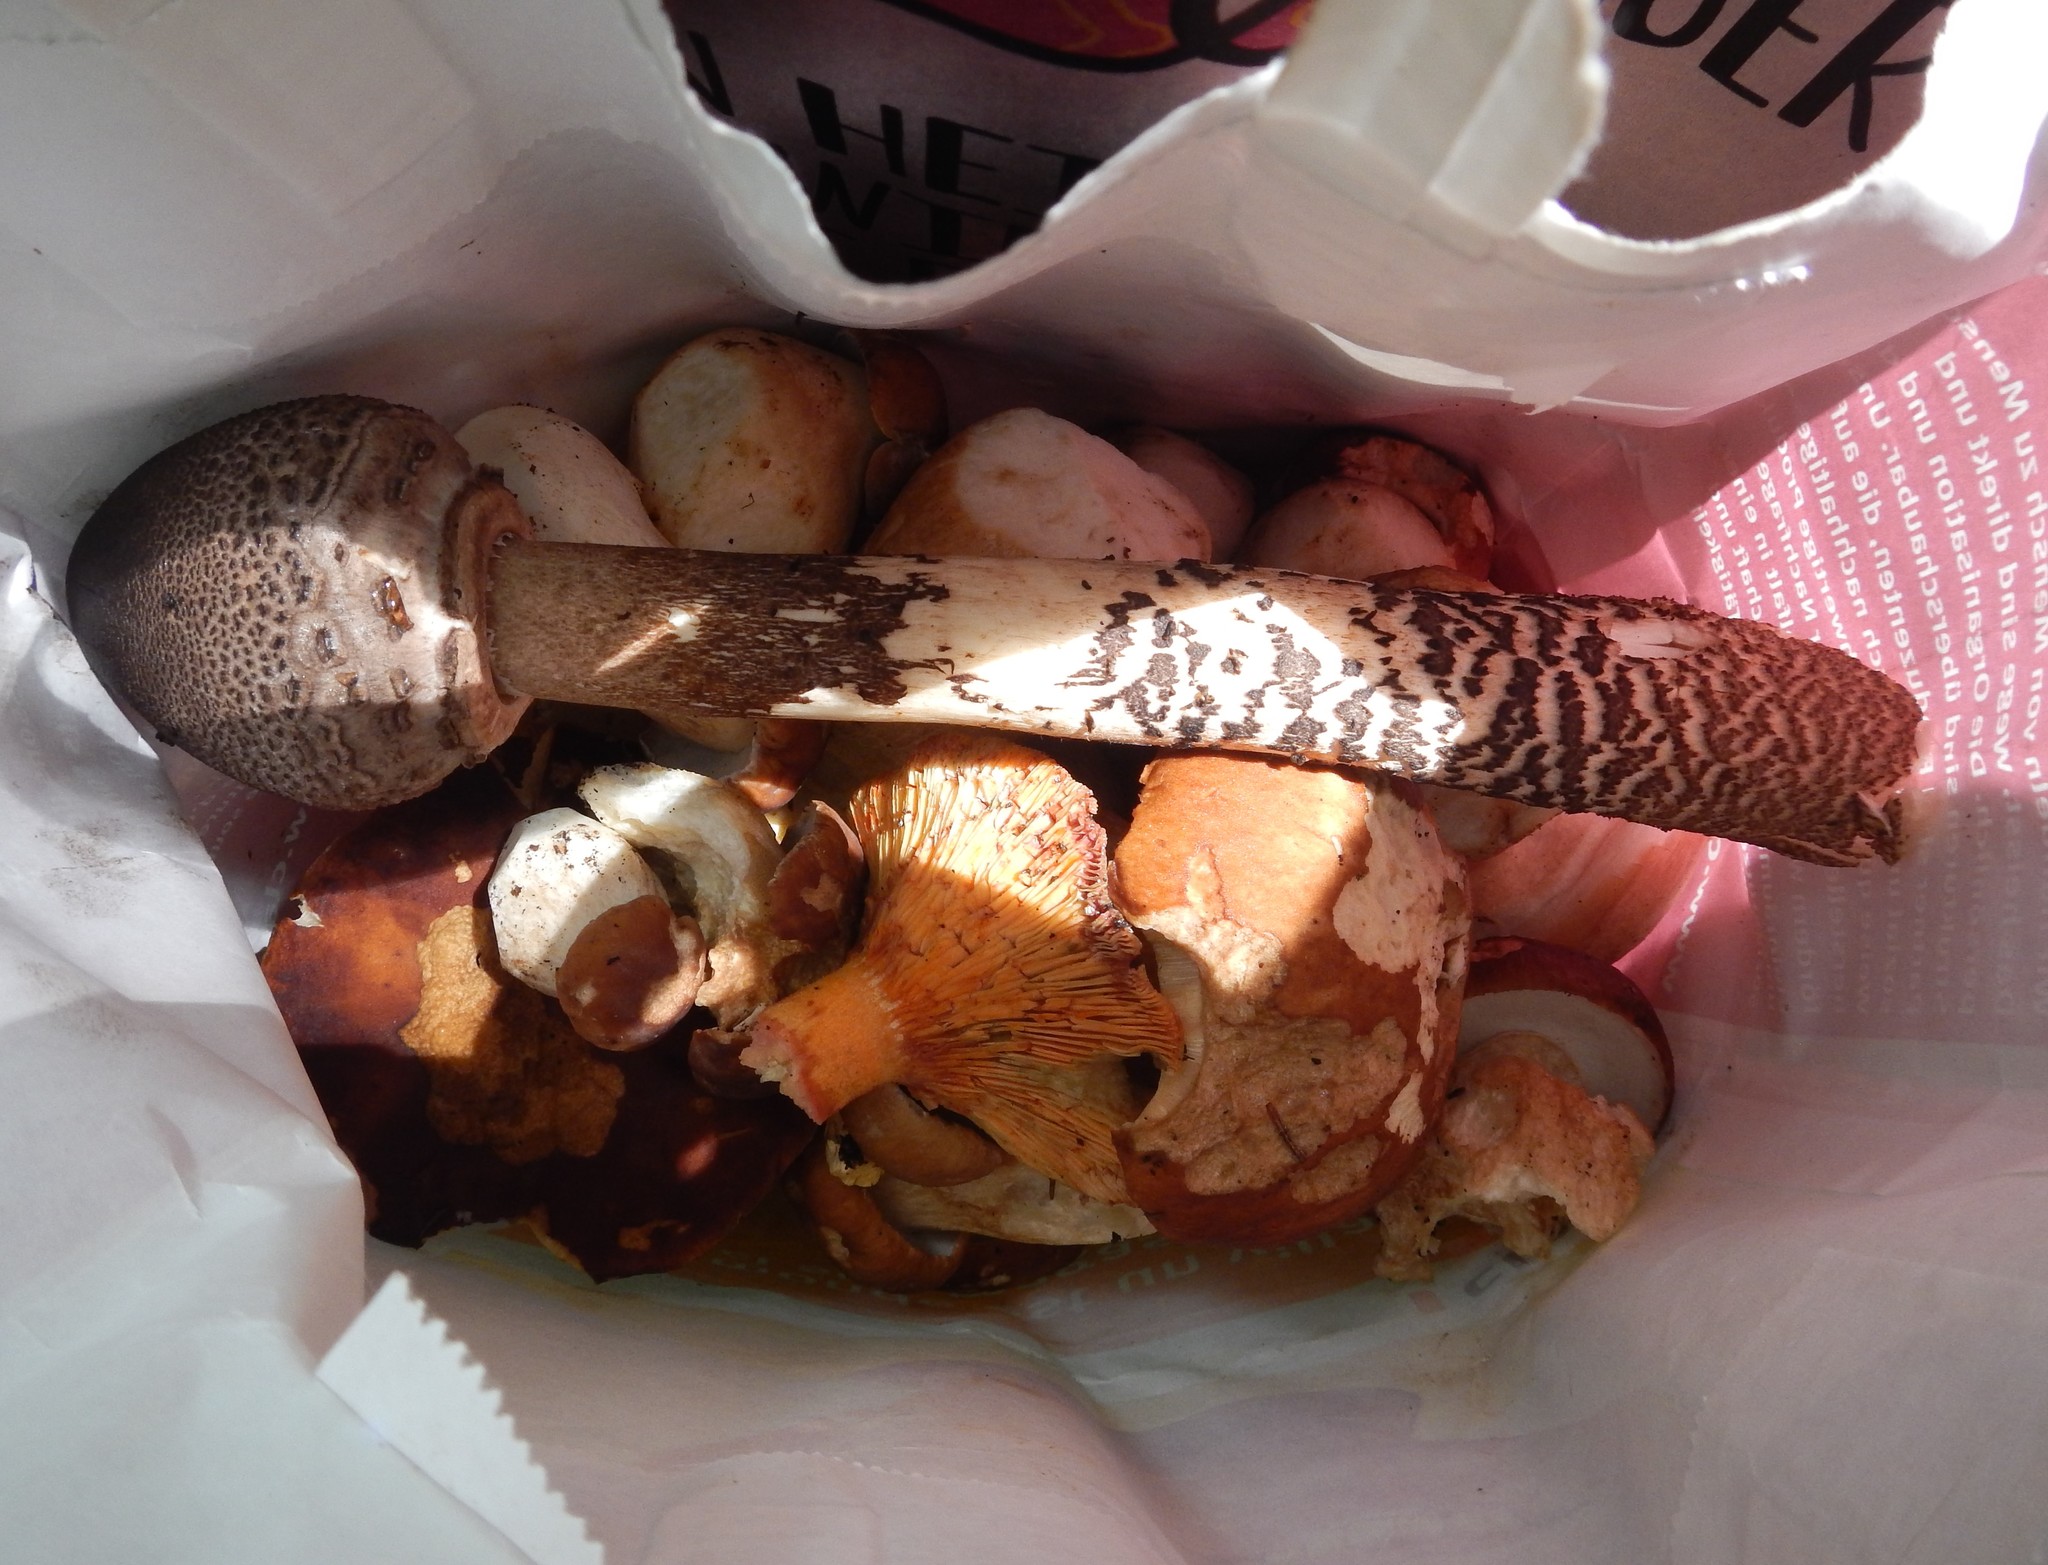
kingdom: Fungi
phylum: Basidiomycota
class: Agaricomycetes
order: Agaricales
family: Agaricaceae
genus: Macrolepiota
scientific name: Macrolepiota procera
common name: Parasol
